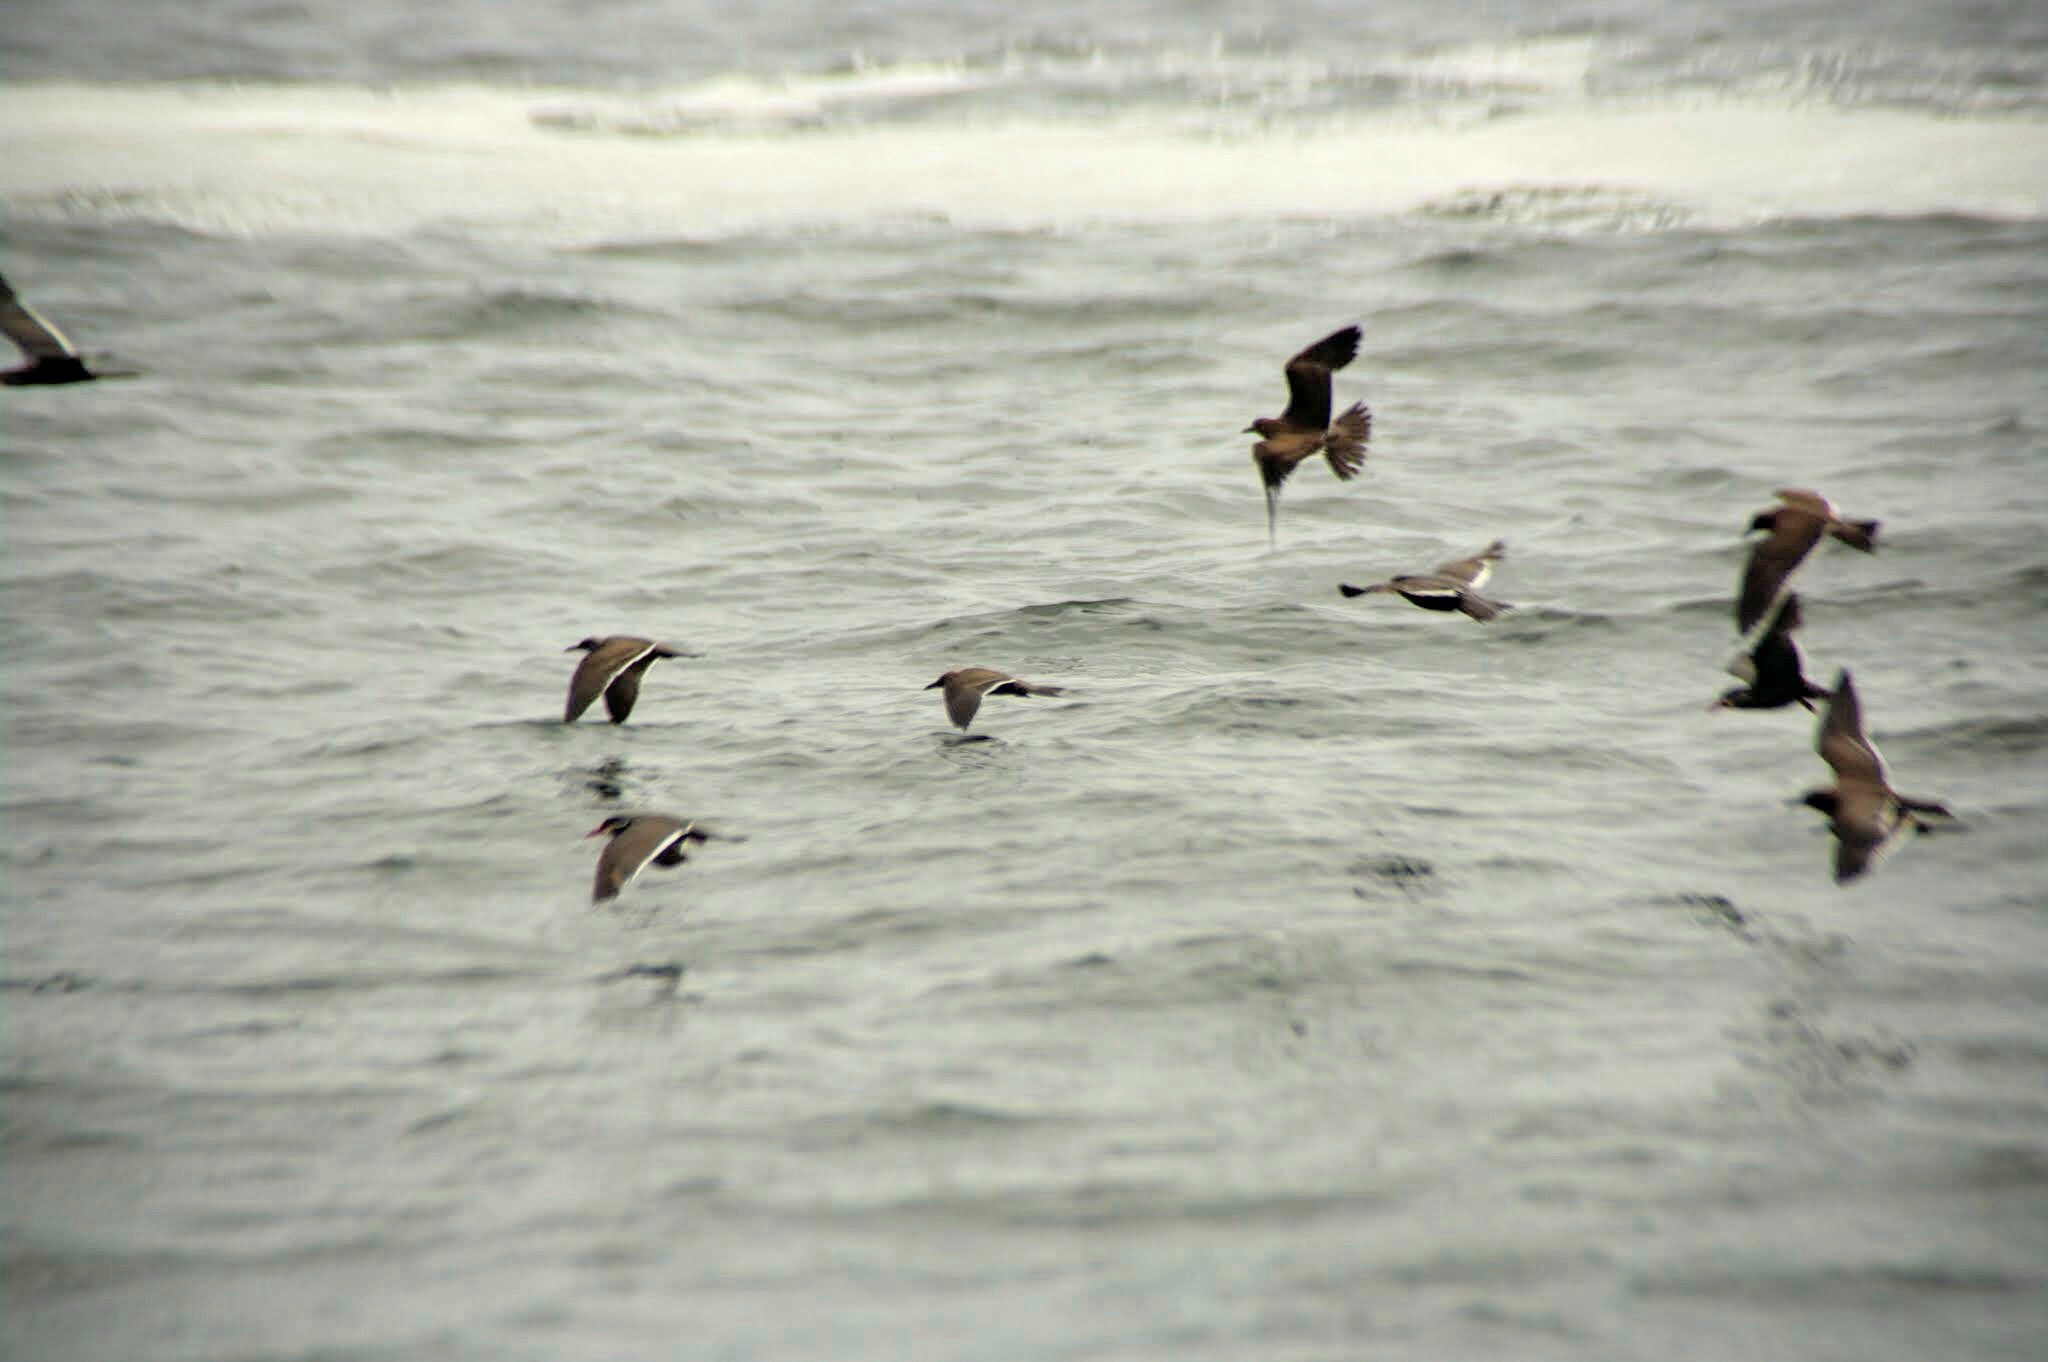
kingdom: Animalia
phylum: Chordata
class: Aves
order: Charadriiformes
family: Laridae
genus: Larosterna
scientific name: Larosterna inca
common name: Inca tern
